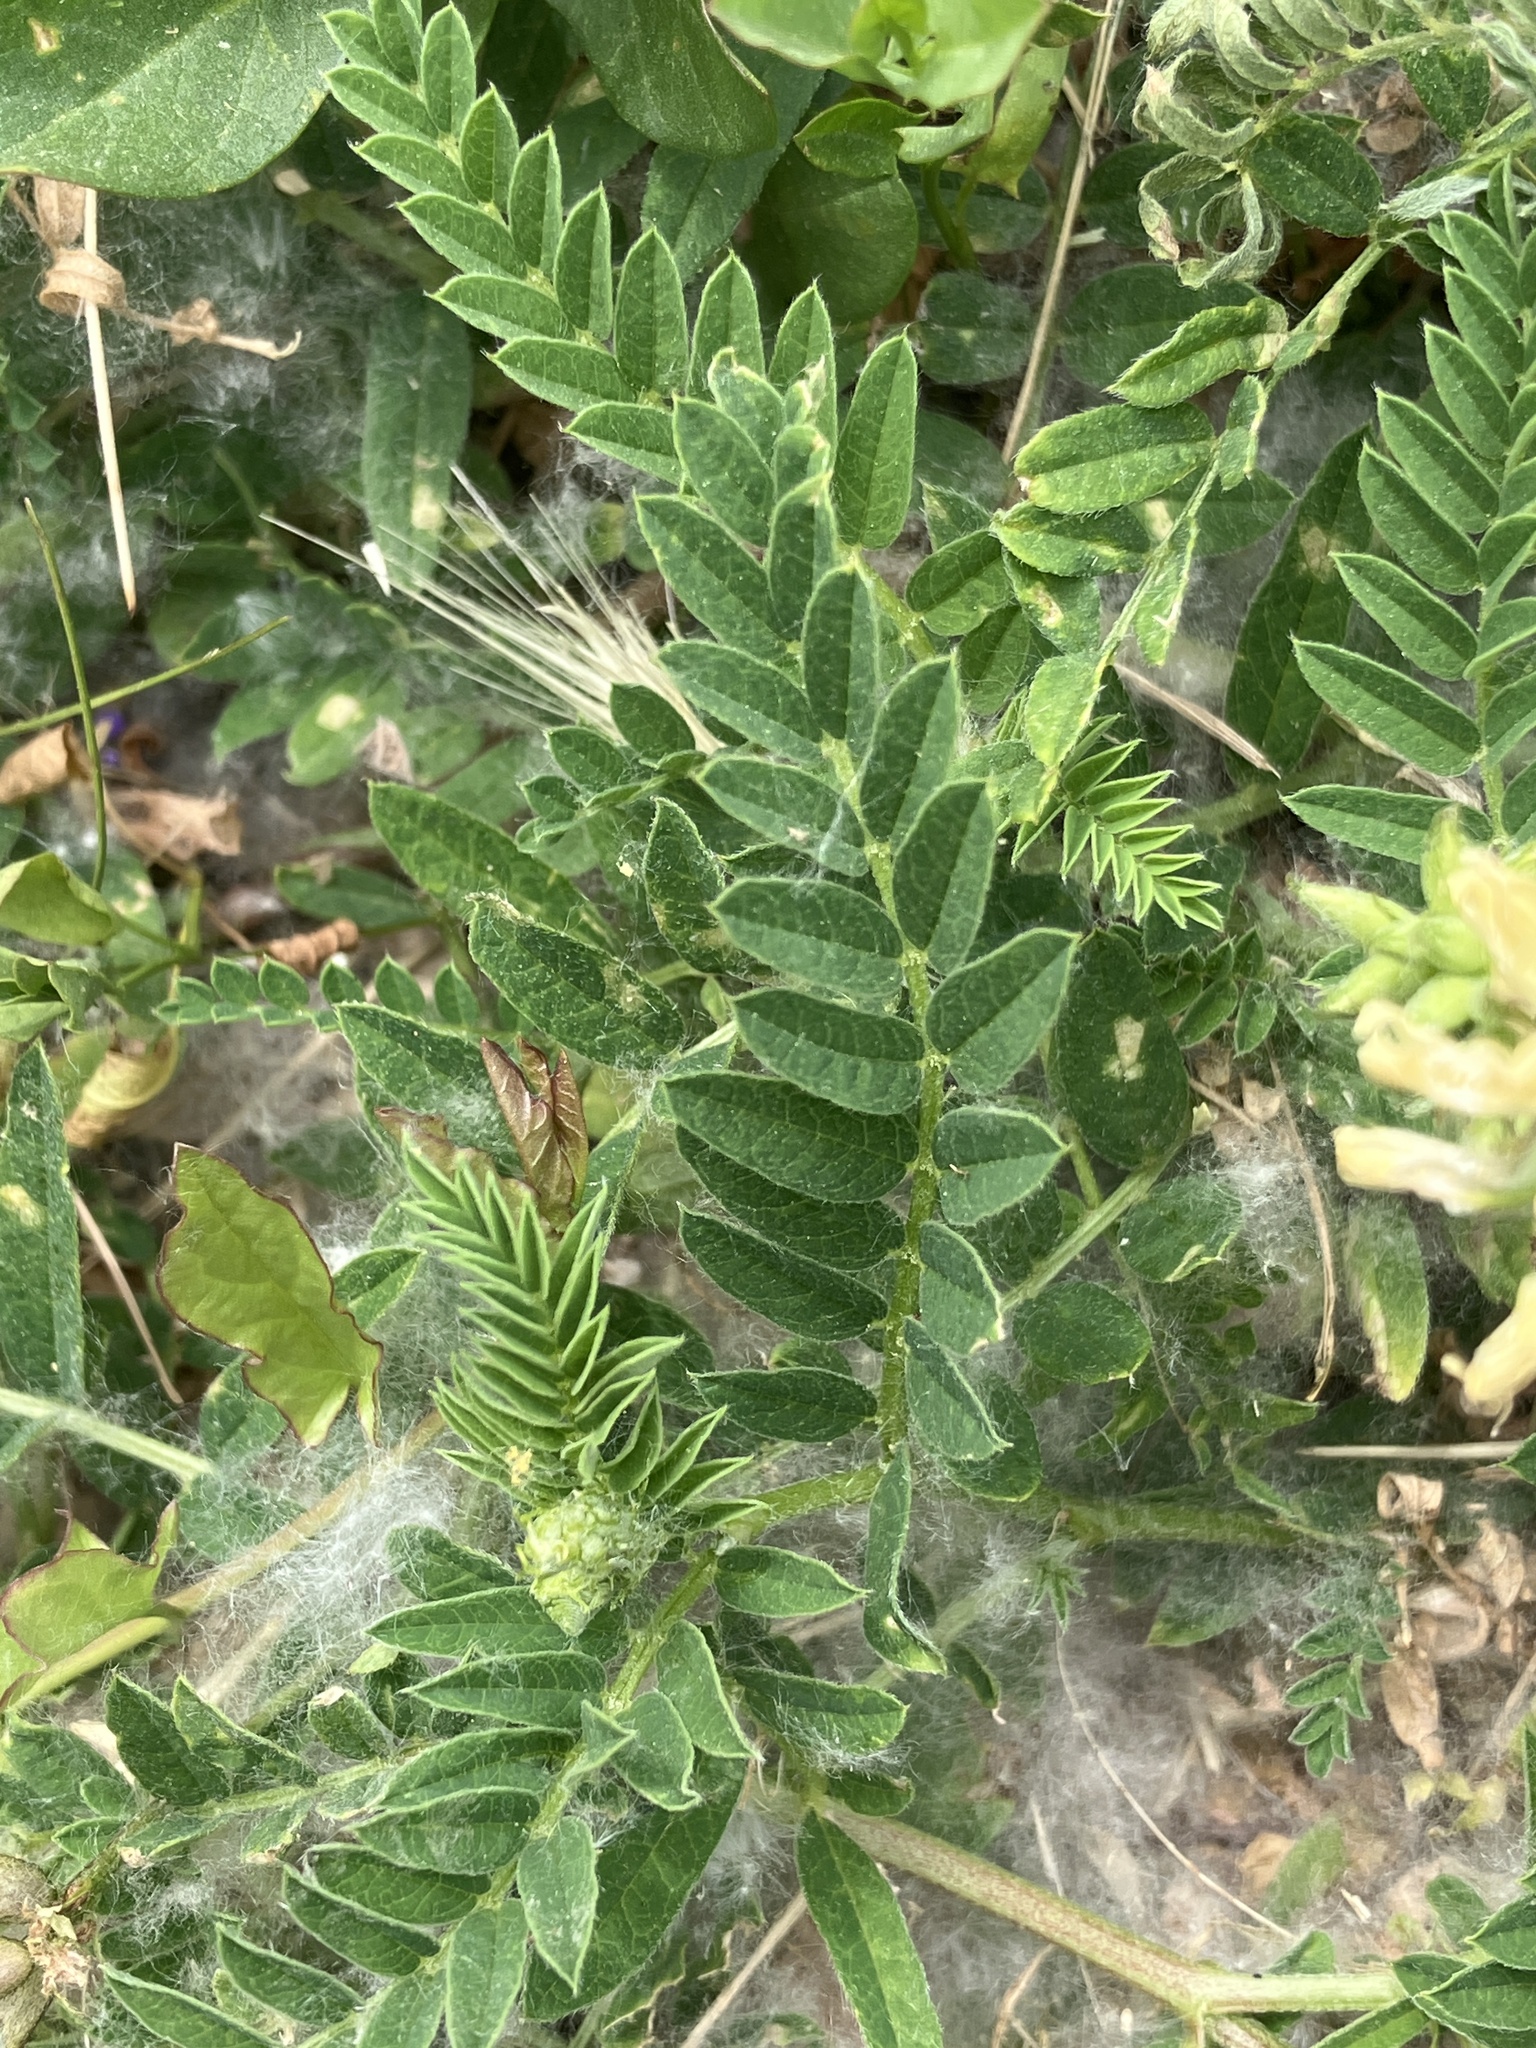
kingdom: Plantae
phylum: Tracheophyta
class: Magnoliopsida
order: Fabales
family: Fabaceae
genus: Astragalus
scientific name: Astragalus cicer
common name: Chick-pea milk-vetch
